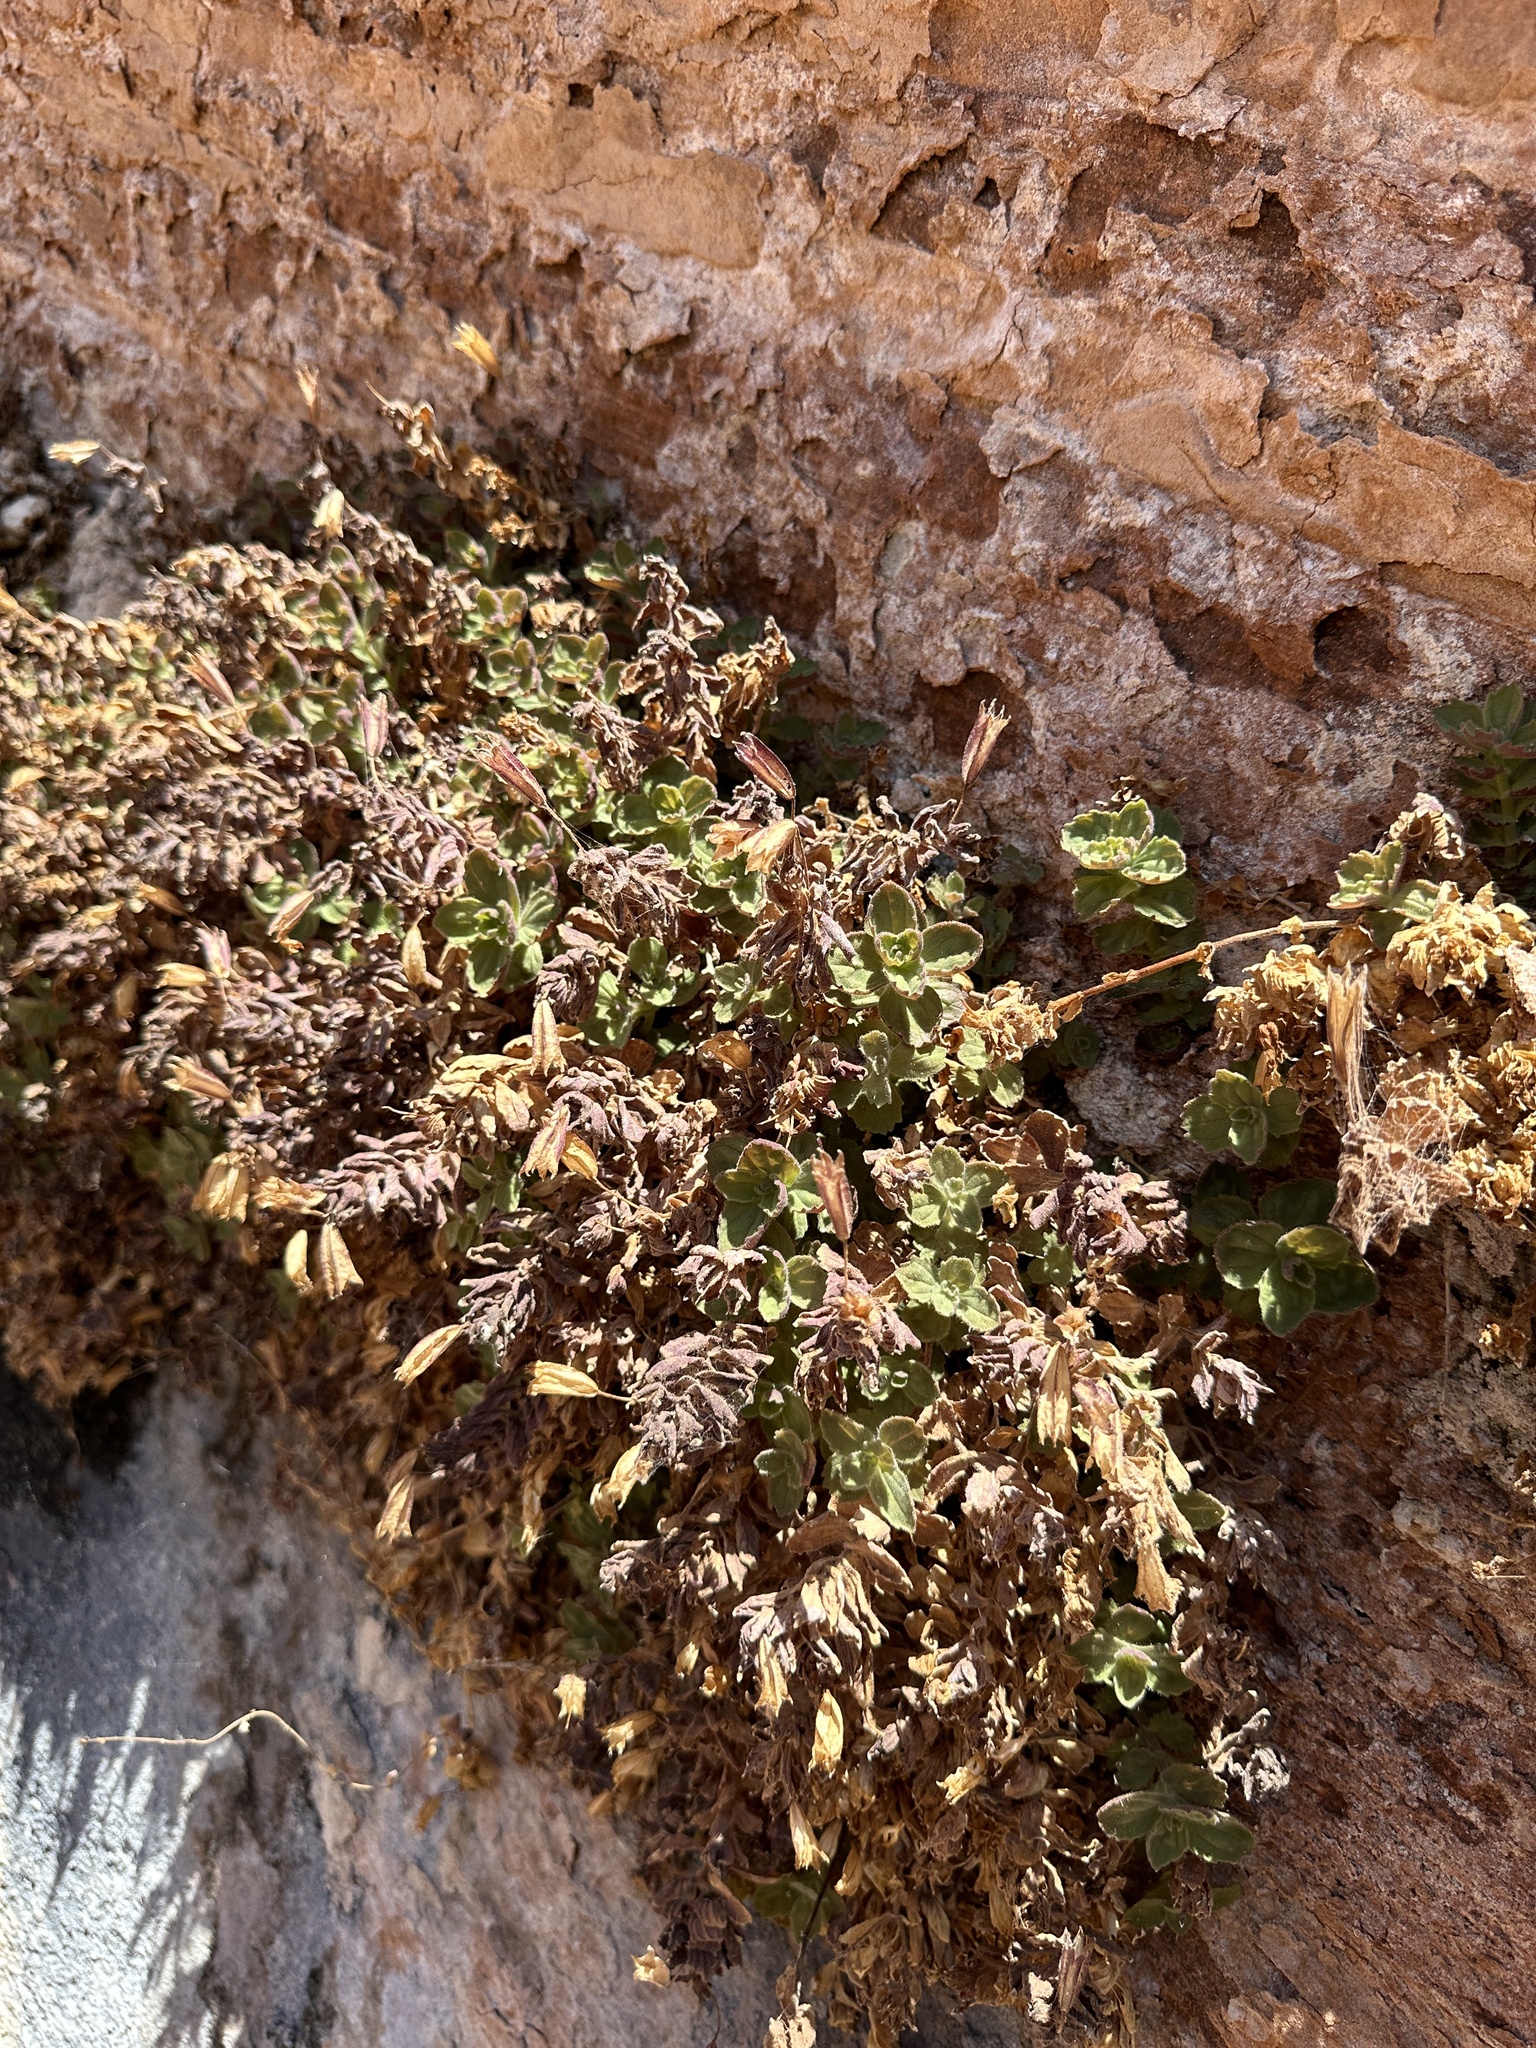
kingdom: Plantae
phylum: Tracheophyta
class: Magnoliopsida
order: Lamiales
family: Phrymaceae
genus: Erythranthe
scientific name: Erythranthe eastwoodiae
